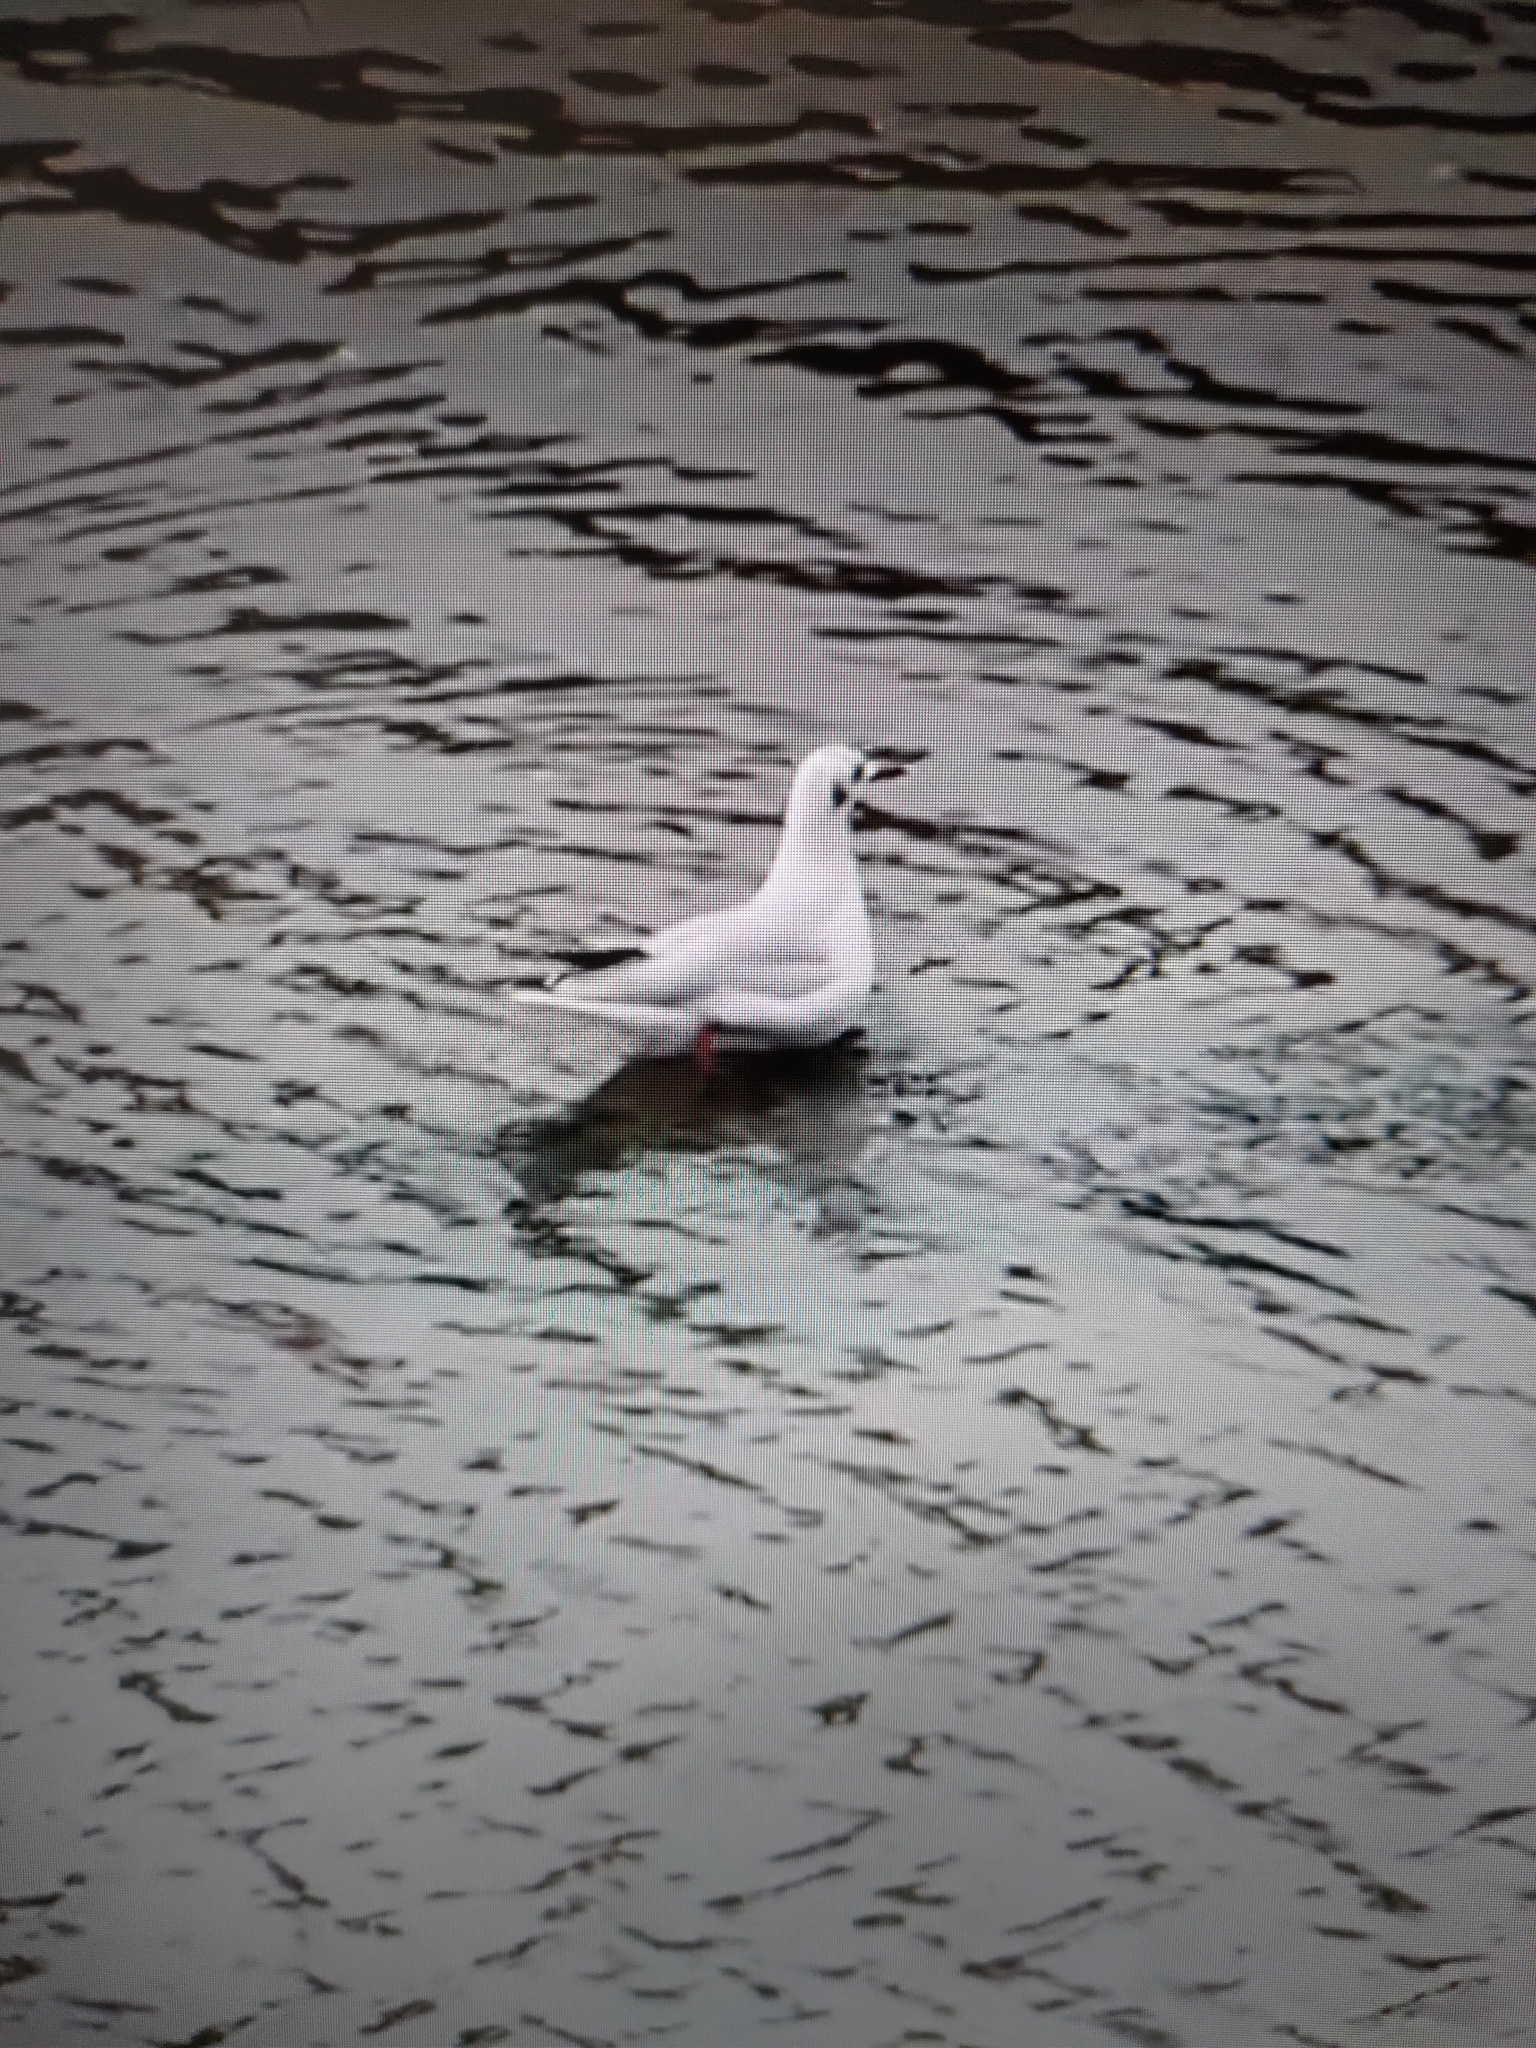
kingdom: Animalia
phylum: Chordata
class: Aves
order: Charadriiformes
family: Laridae
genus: Chroicocephalus
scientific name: Chroicocephalus ridibundus
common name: Black-headed gull
